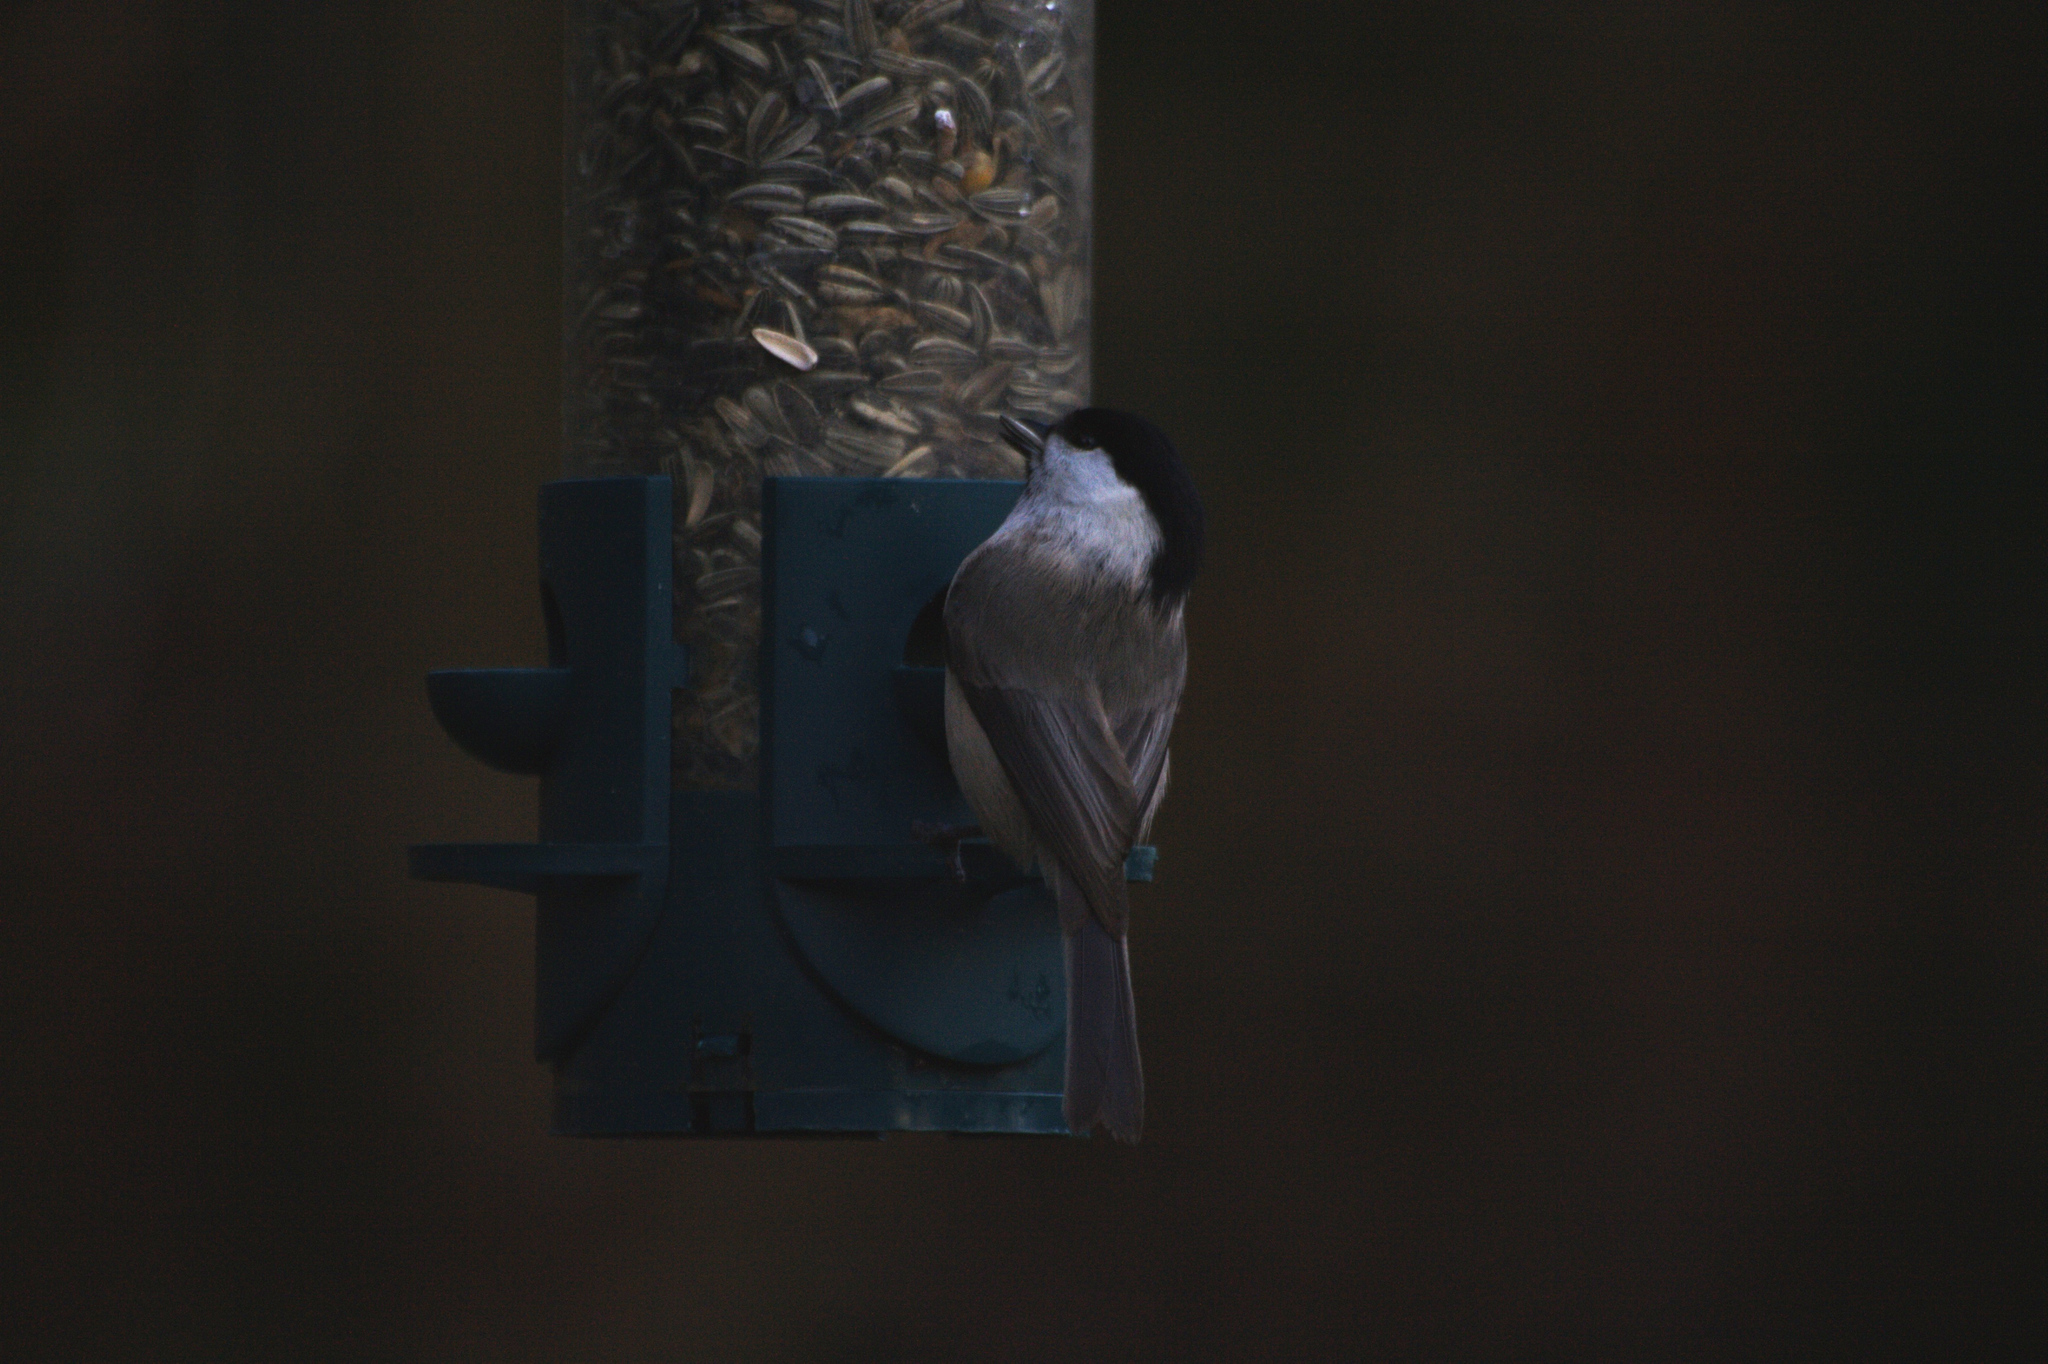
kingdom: Animalia
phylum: Chordata
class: Aves
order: Passeriformes
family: Paridae
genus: Poecile
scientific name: Poecile montanus
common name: Willow tit
